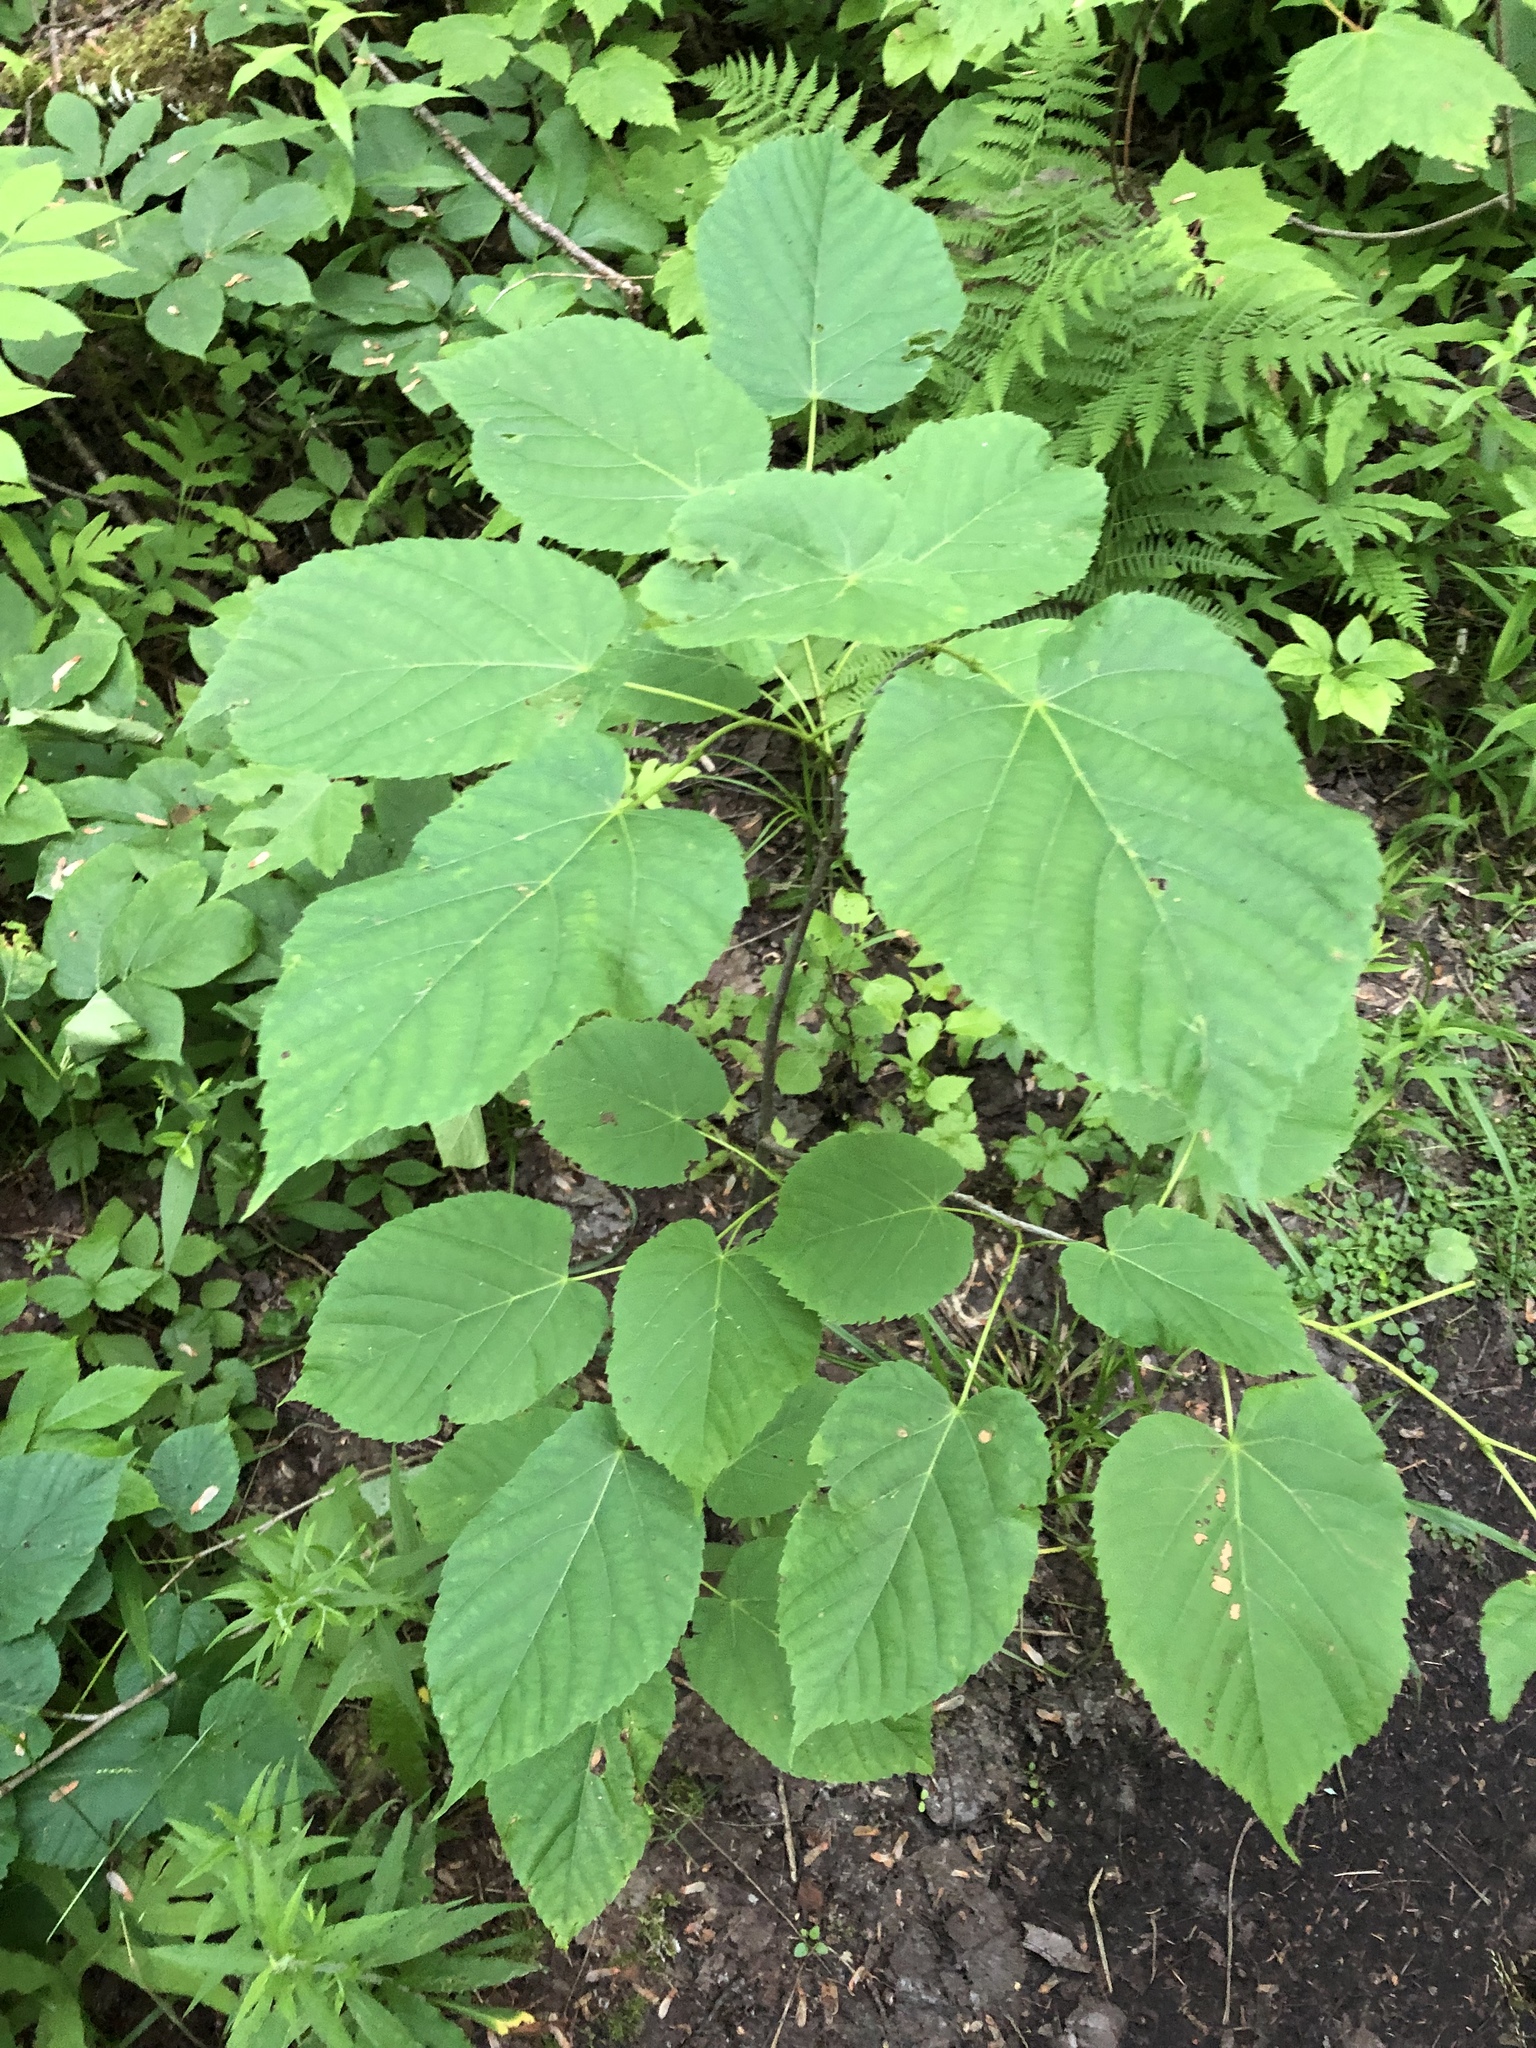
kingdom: Plantae
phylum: Tracheophyta
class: Magnoliopsida
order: Malvales
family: Malvaceae
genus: Tilia
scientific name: Tilia americana
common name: Basswood
